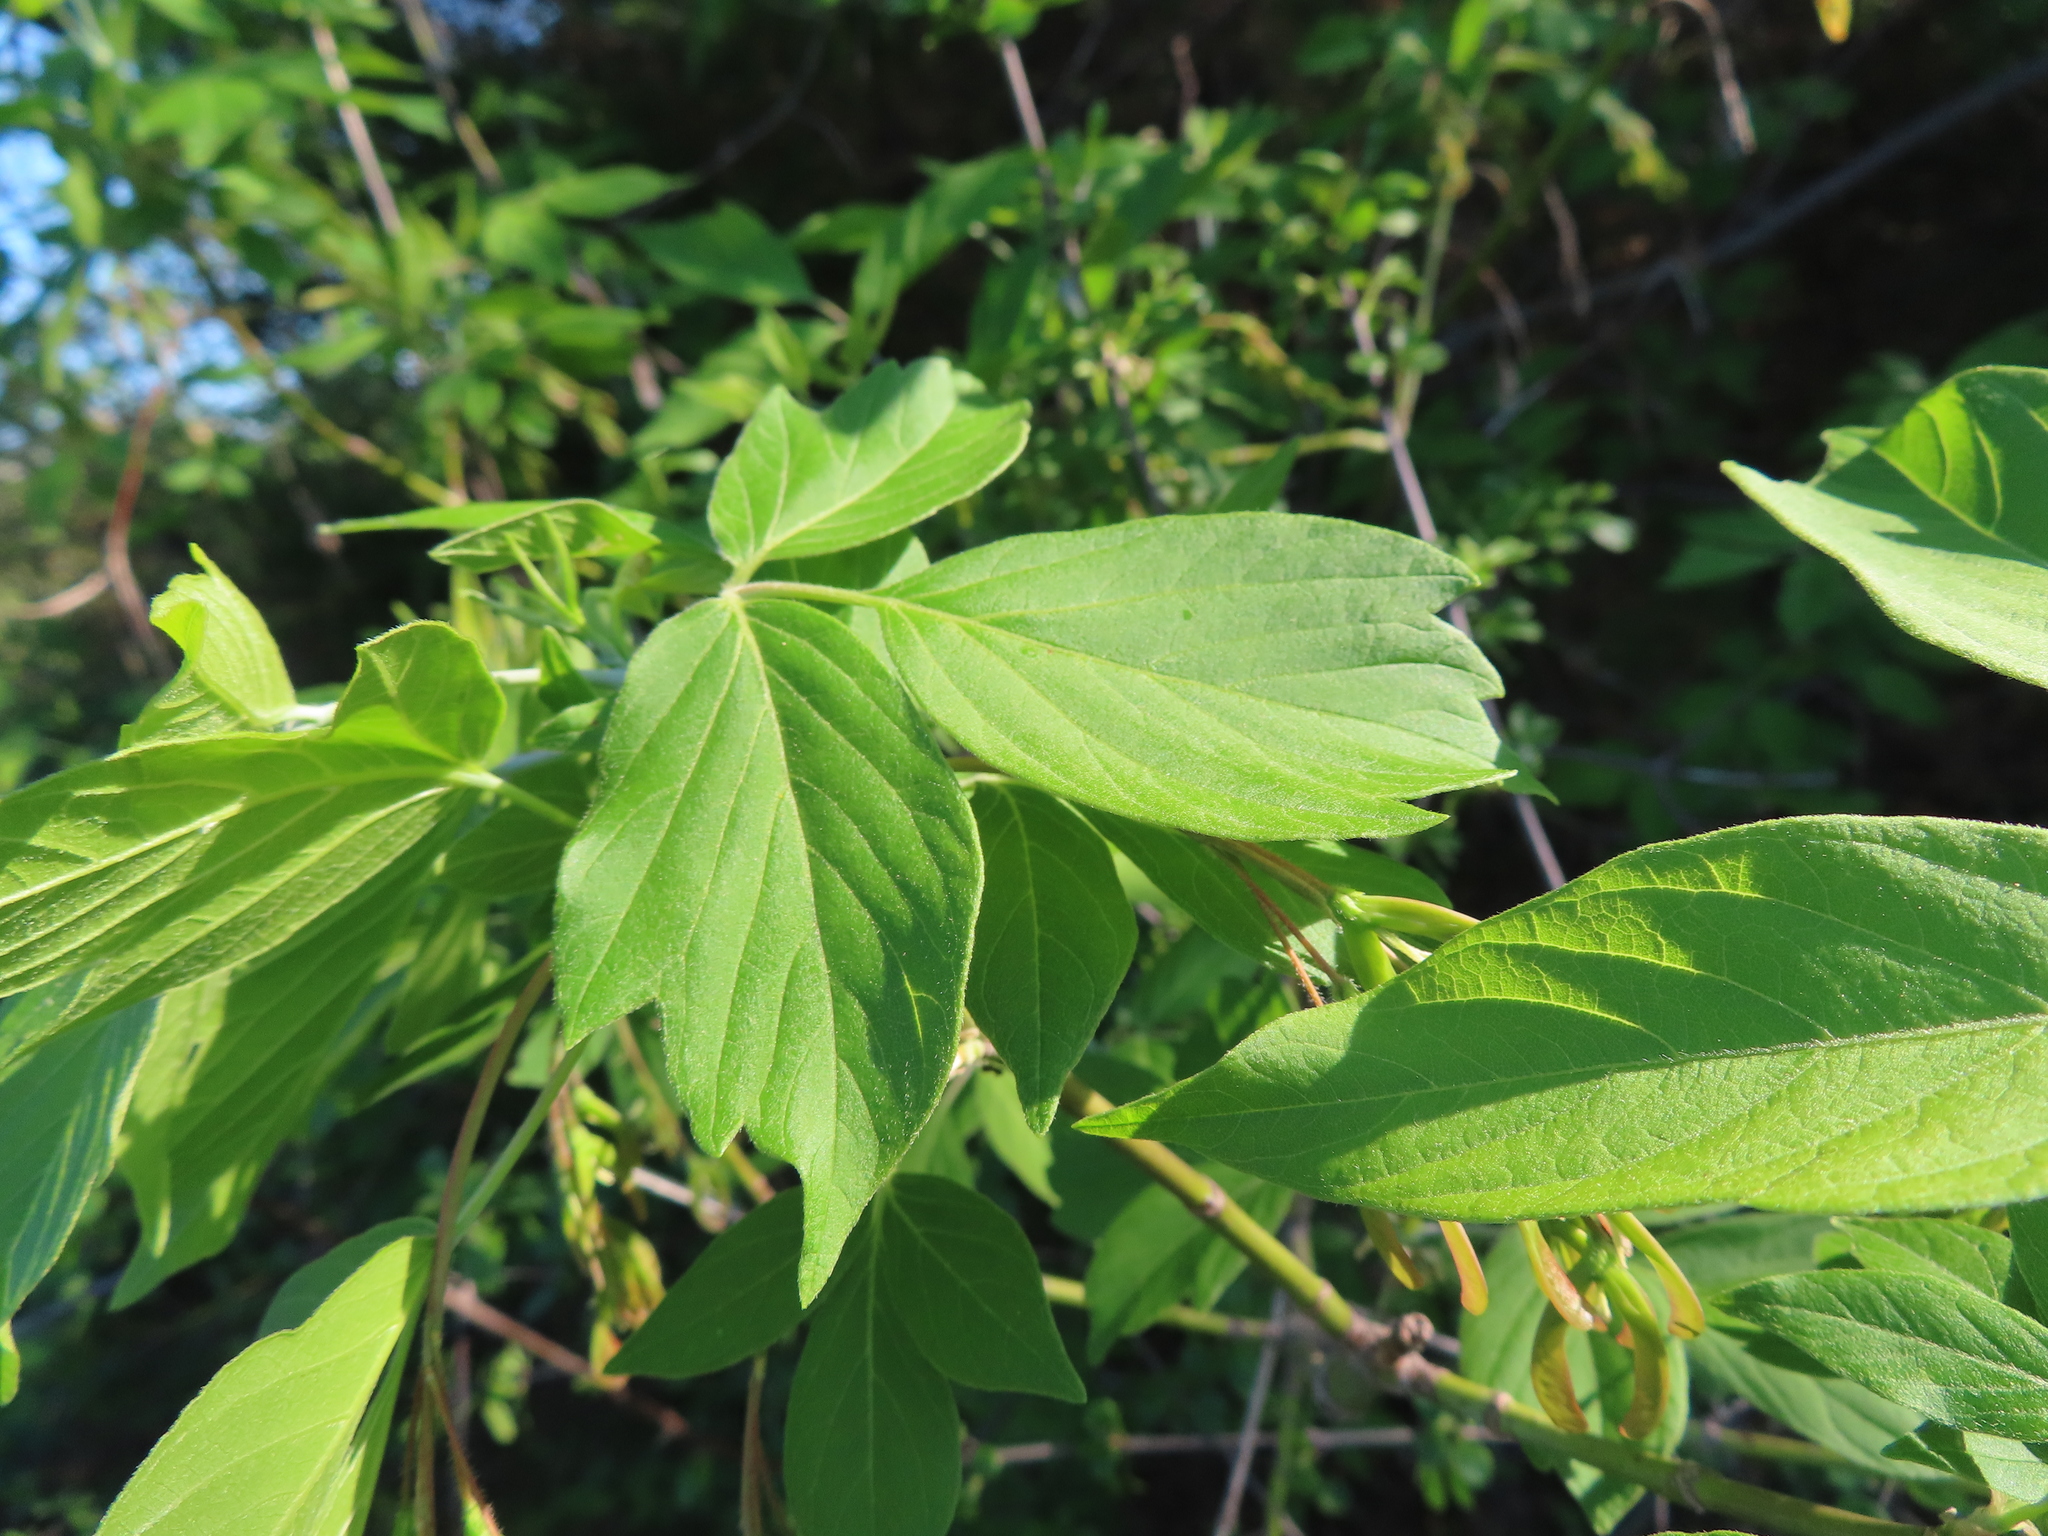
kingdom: Plantae
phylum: Tracheophyta
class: Magnoliopsida
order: Sapindales
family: Sapindaceae
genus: Acer
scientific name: Acer negundo
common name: Ashleaf maple
